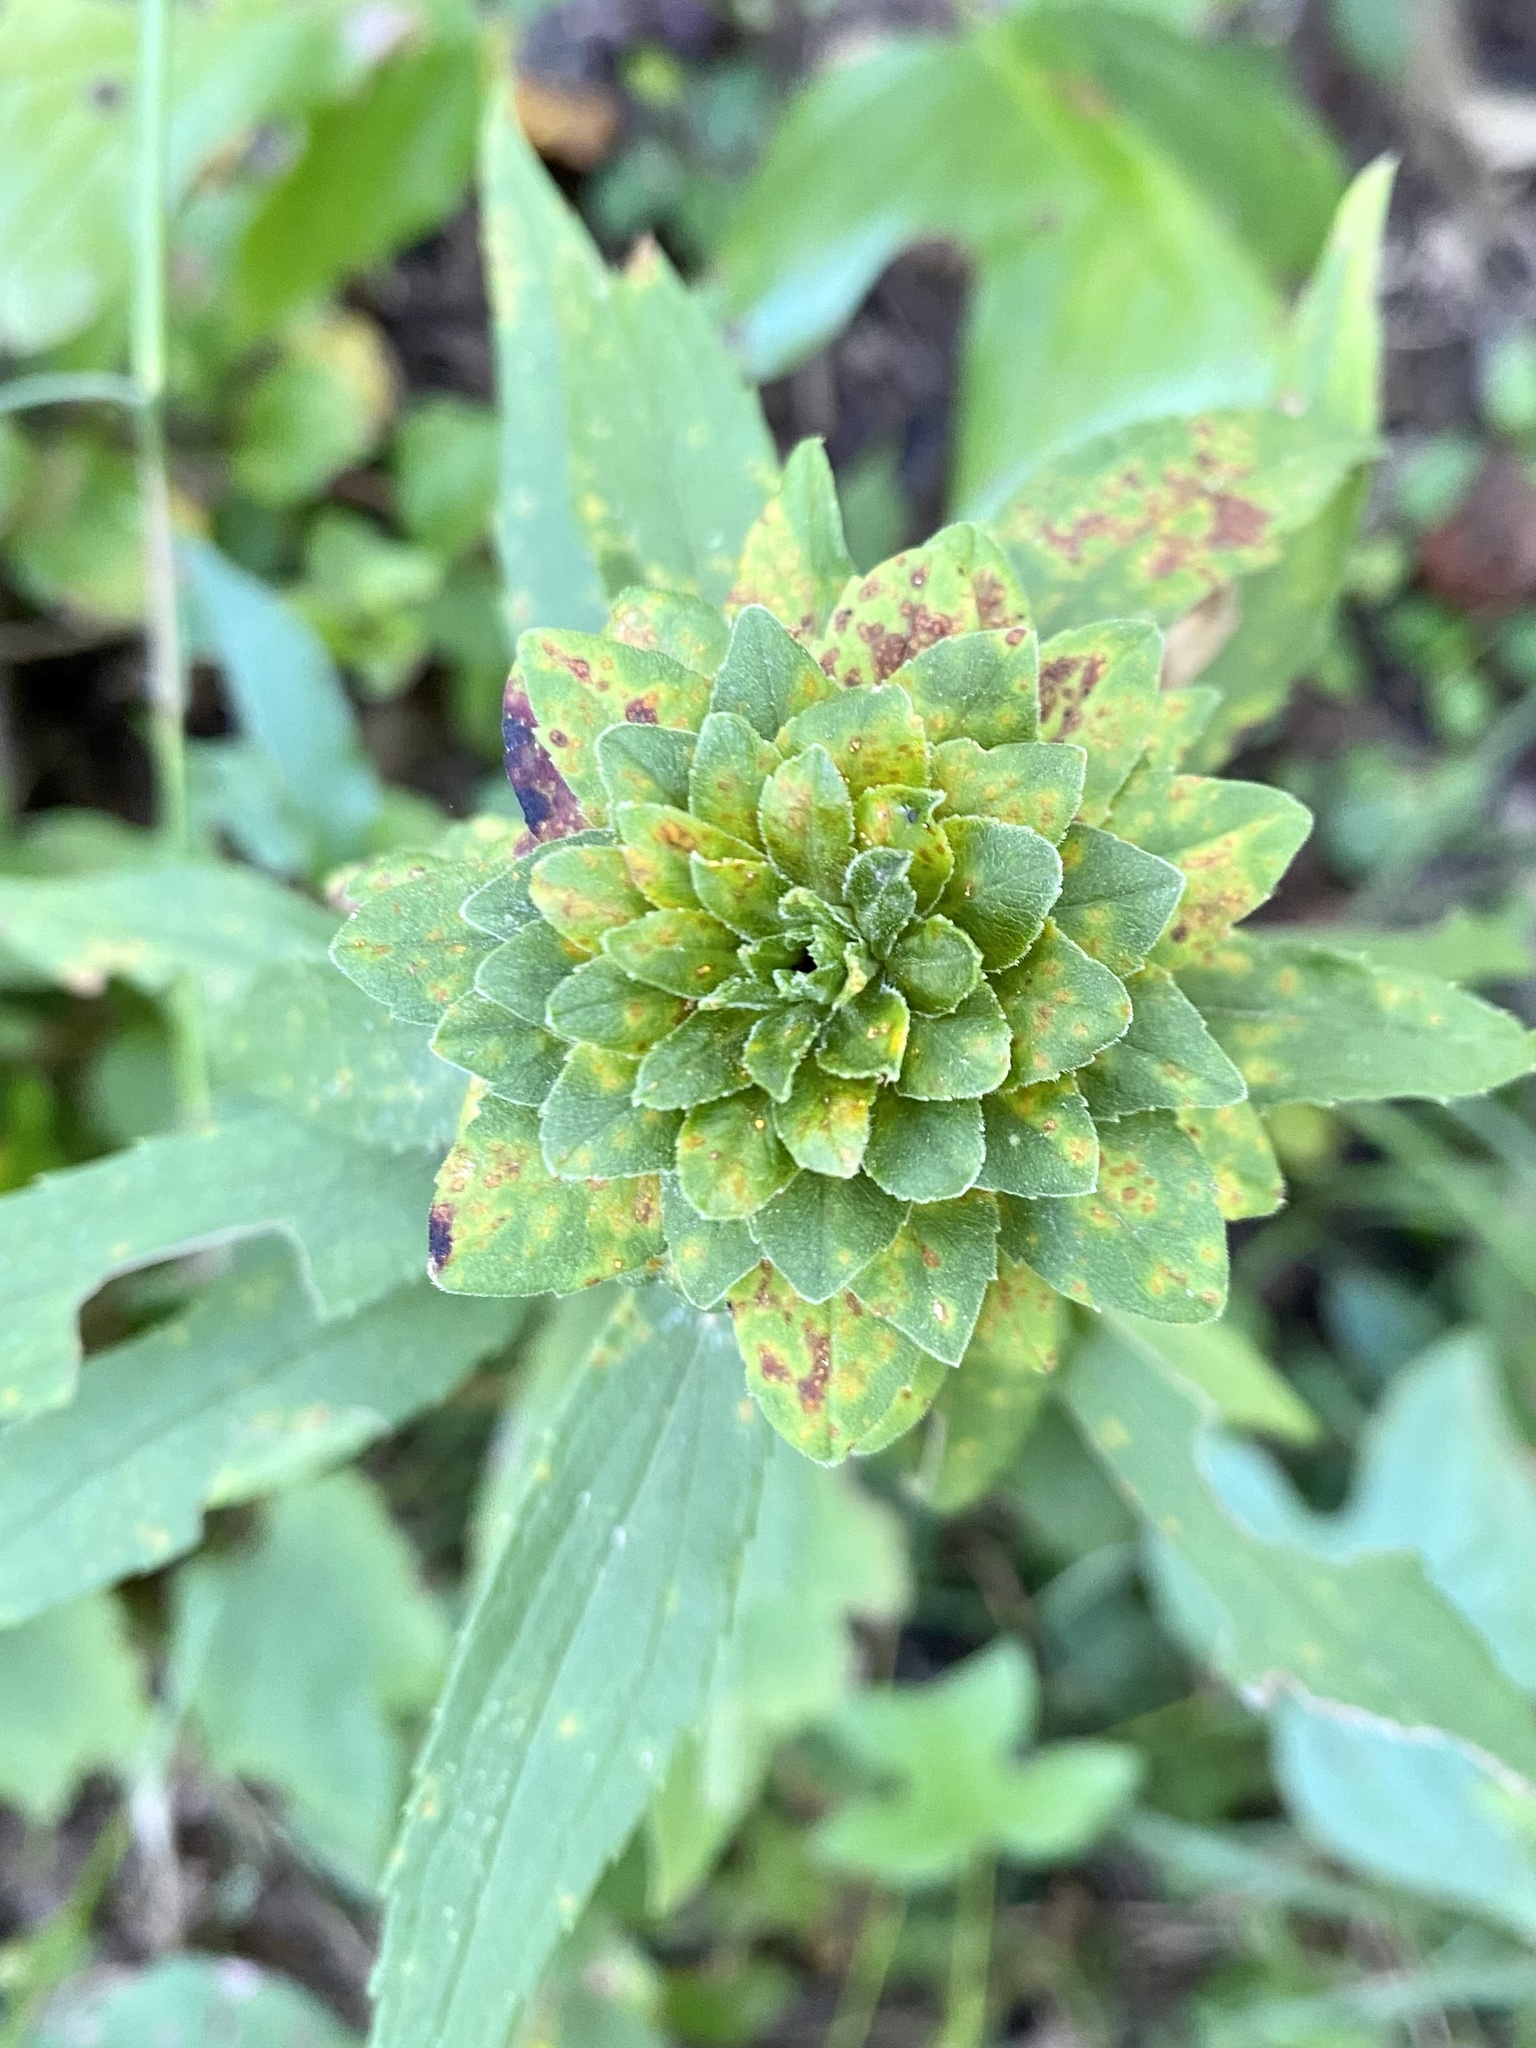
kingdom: Animalia
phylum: Arthropoda
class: Insecta
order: Diptera
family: Tephritidae
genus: Procecidochares
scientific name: Procecidochares atra
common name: Goldenrod brussels sprout gall fly
